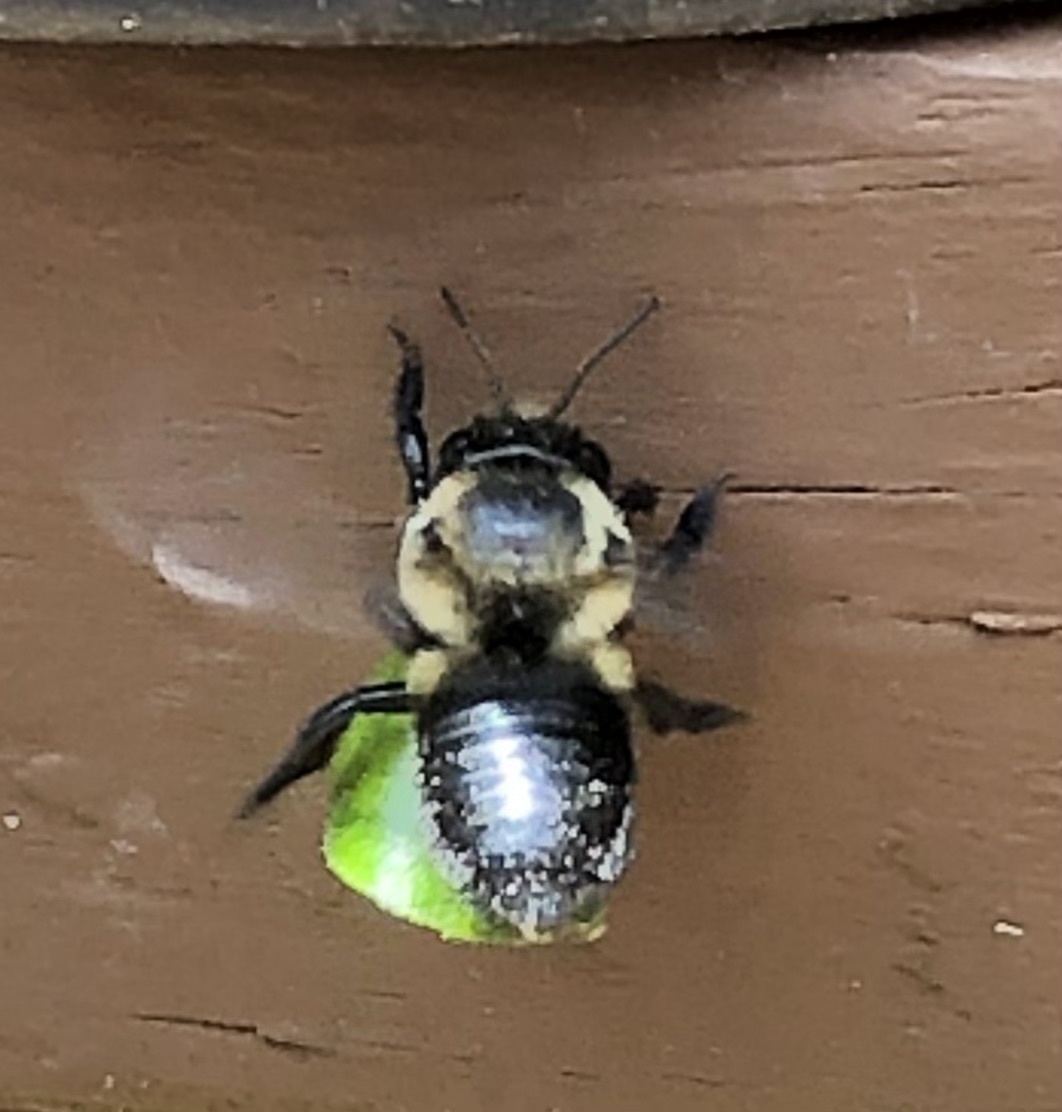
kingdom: Animalia
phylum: Arthropoda
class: Insecta
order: Hymenoptera
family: Megachilidae
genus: Megachile
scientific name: Megachile mucida
